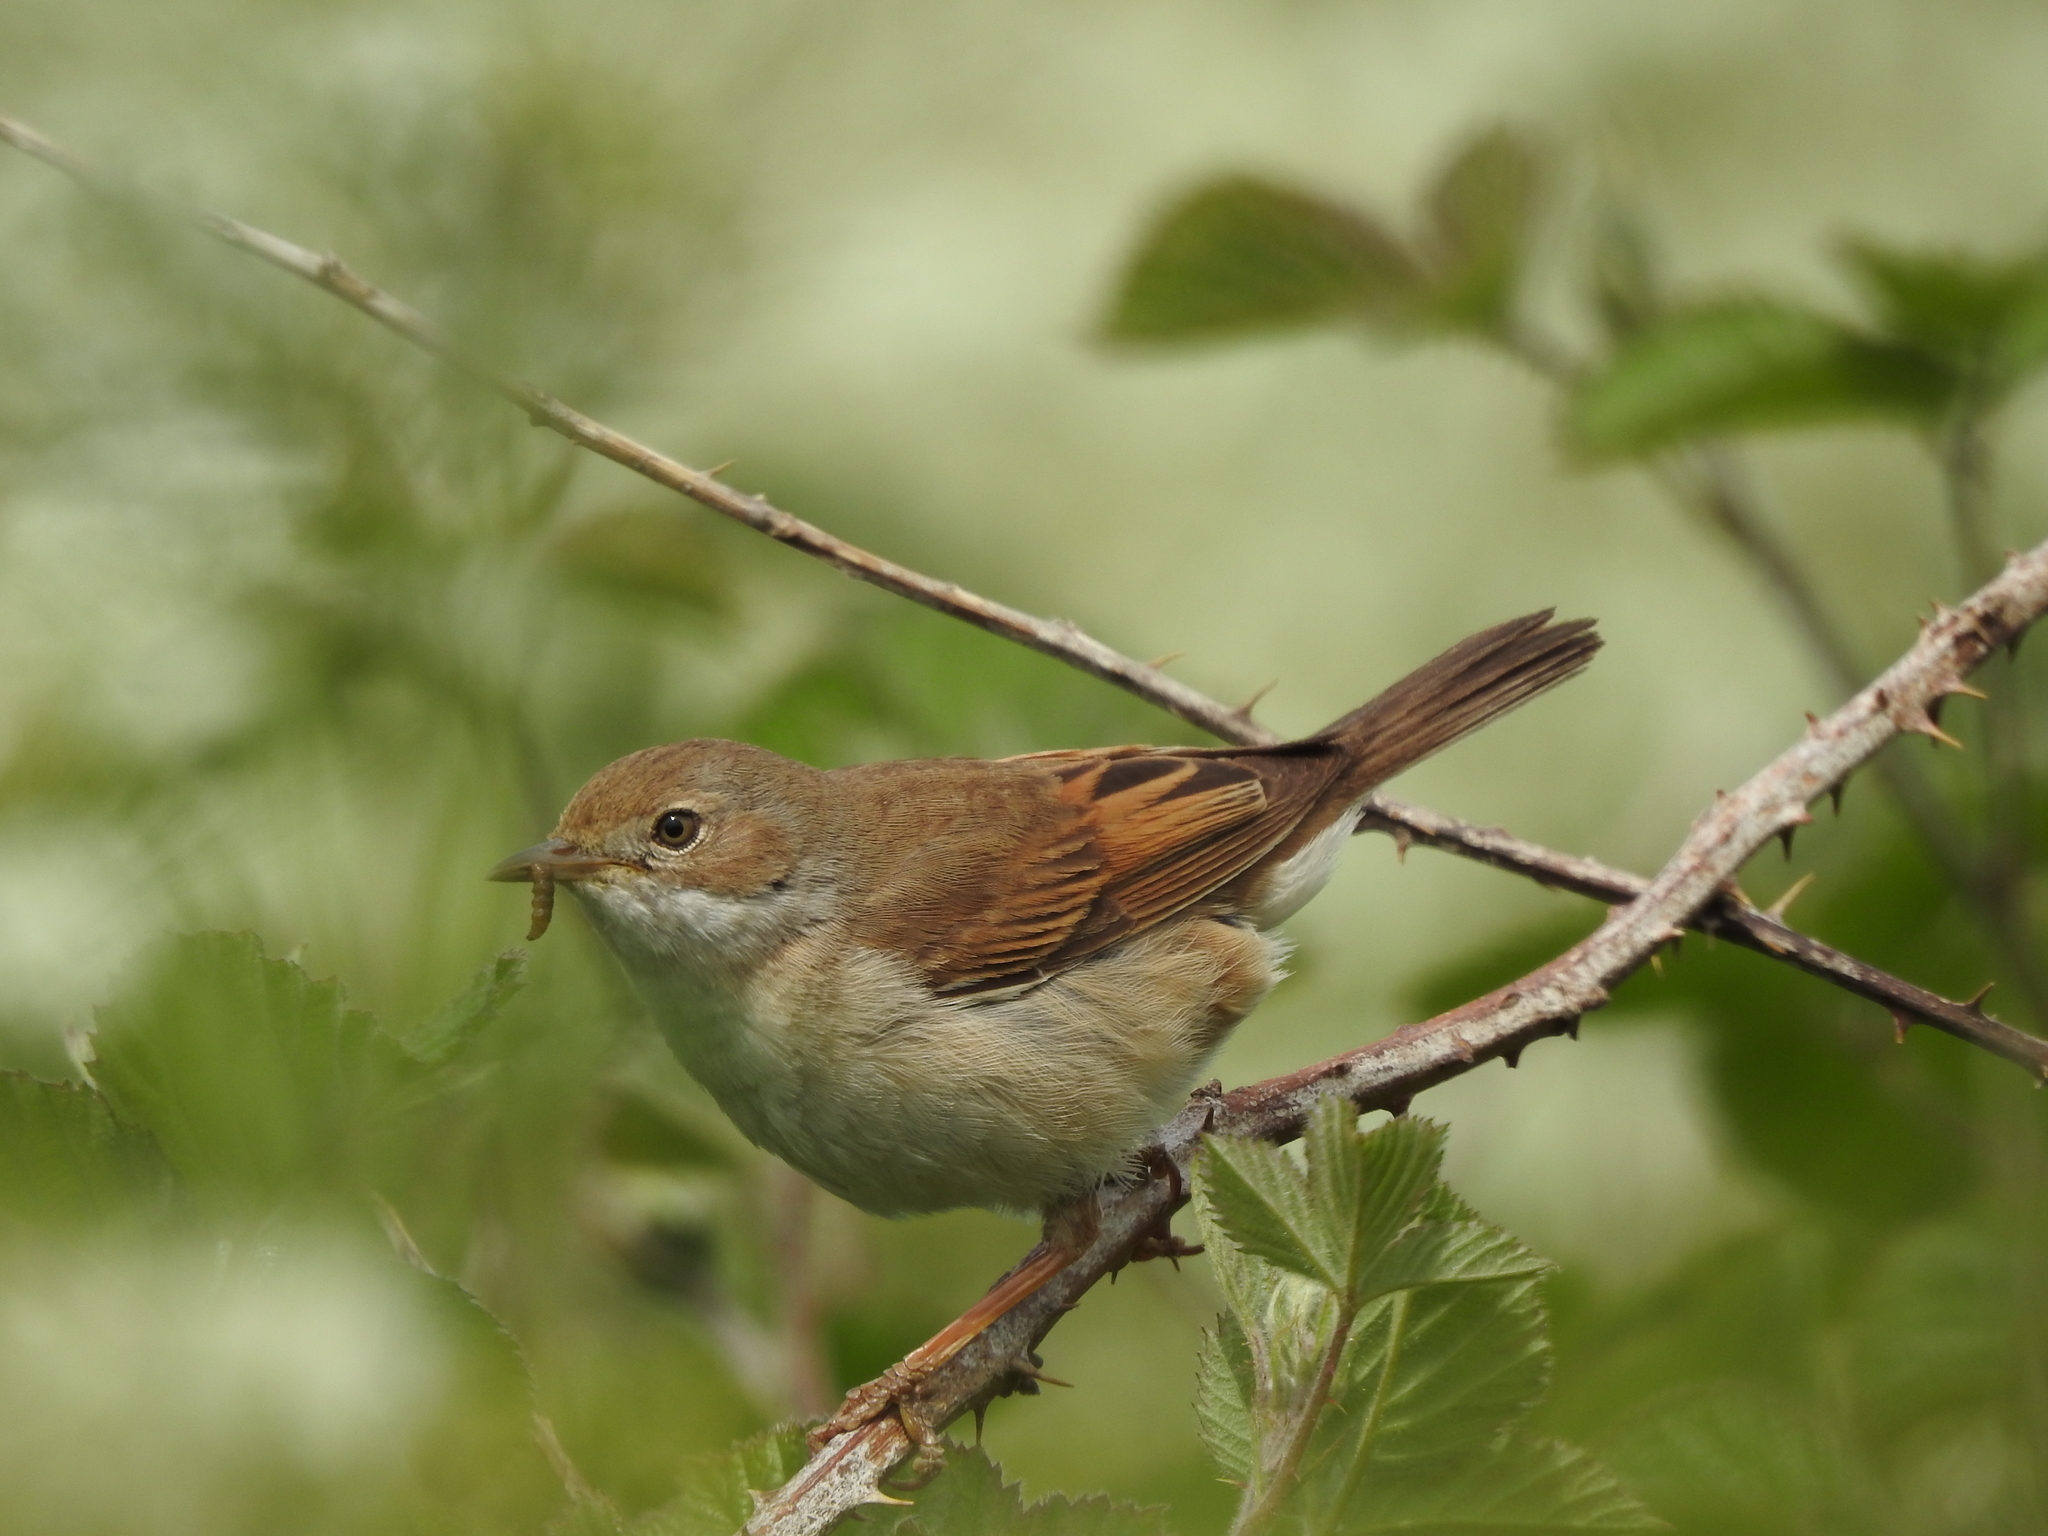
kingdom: Animalia
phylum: Chordata
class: Aves
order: Passeriformes
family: Sylviidae
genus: Sylvia
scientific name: Sylvia communis
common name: Common whitethroat
